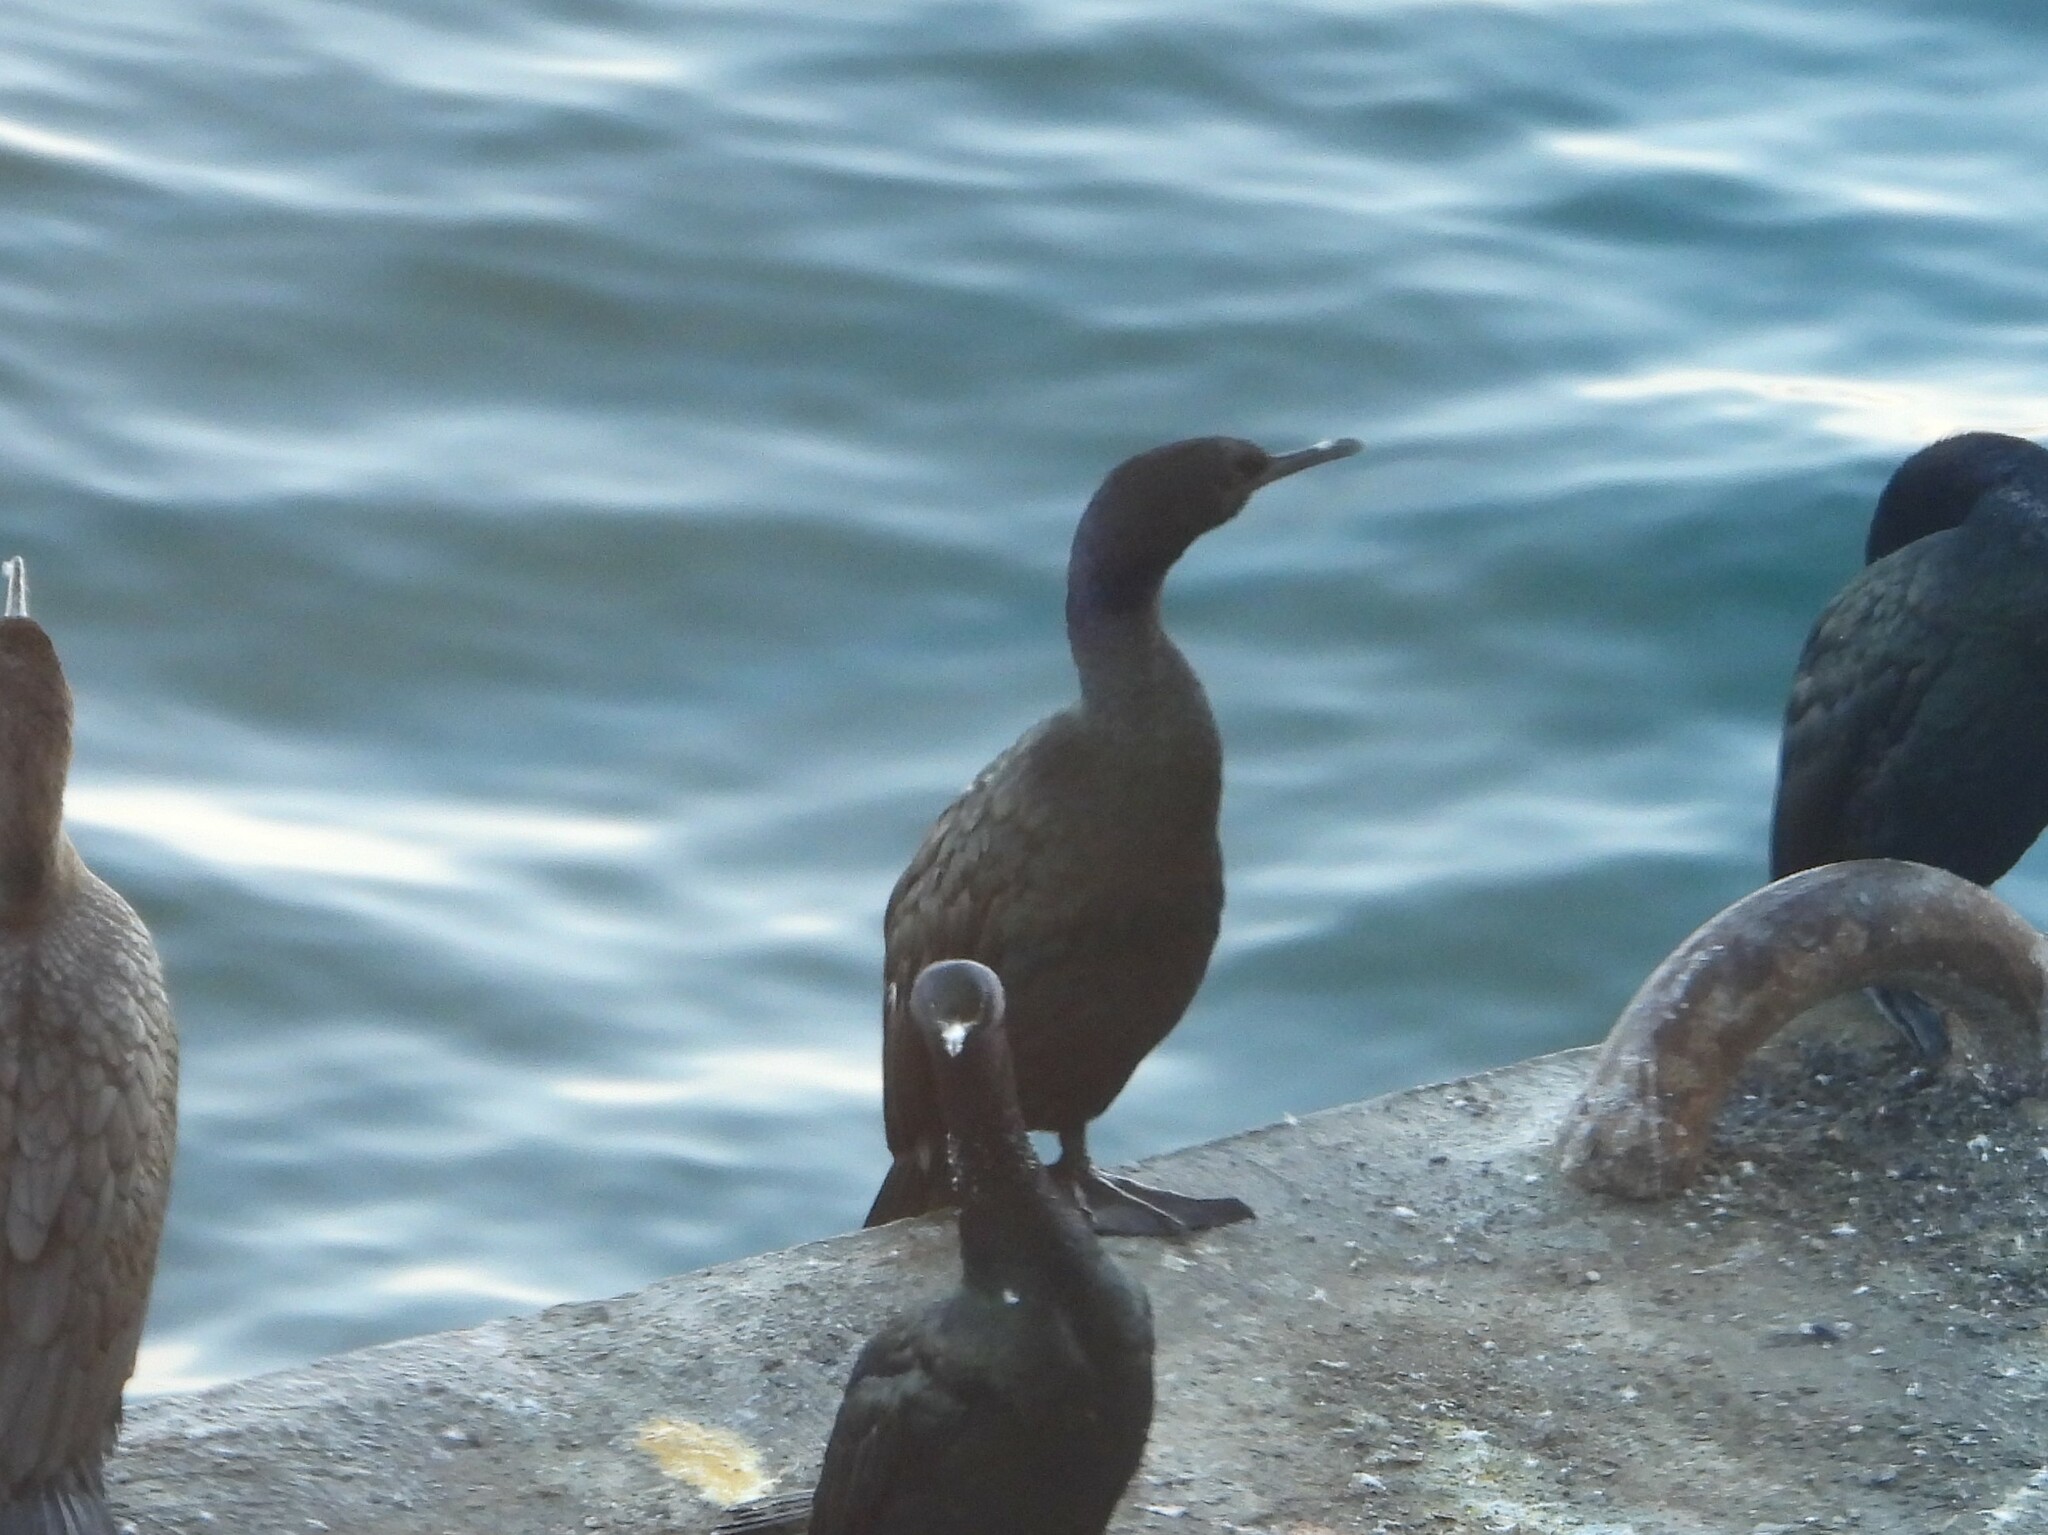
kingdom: Animalia
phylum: Chordata
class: Aves
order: Suliformes
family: Phalacrocoracidae
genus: Phalacrocorax
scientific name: Phalacrocorax pelagicus
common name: Pelagic cormorant
